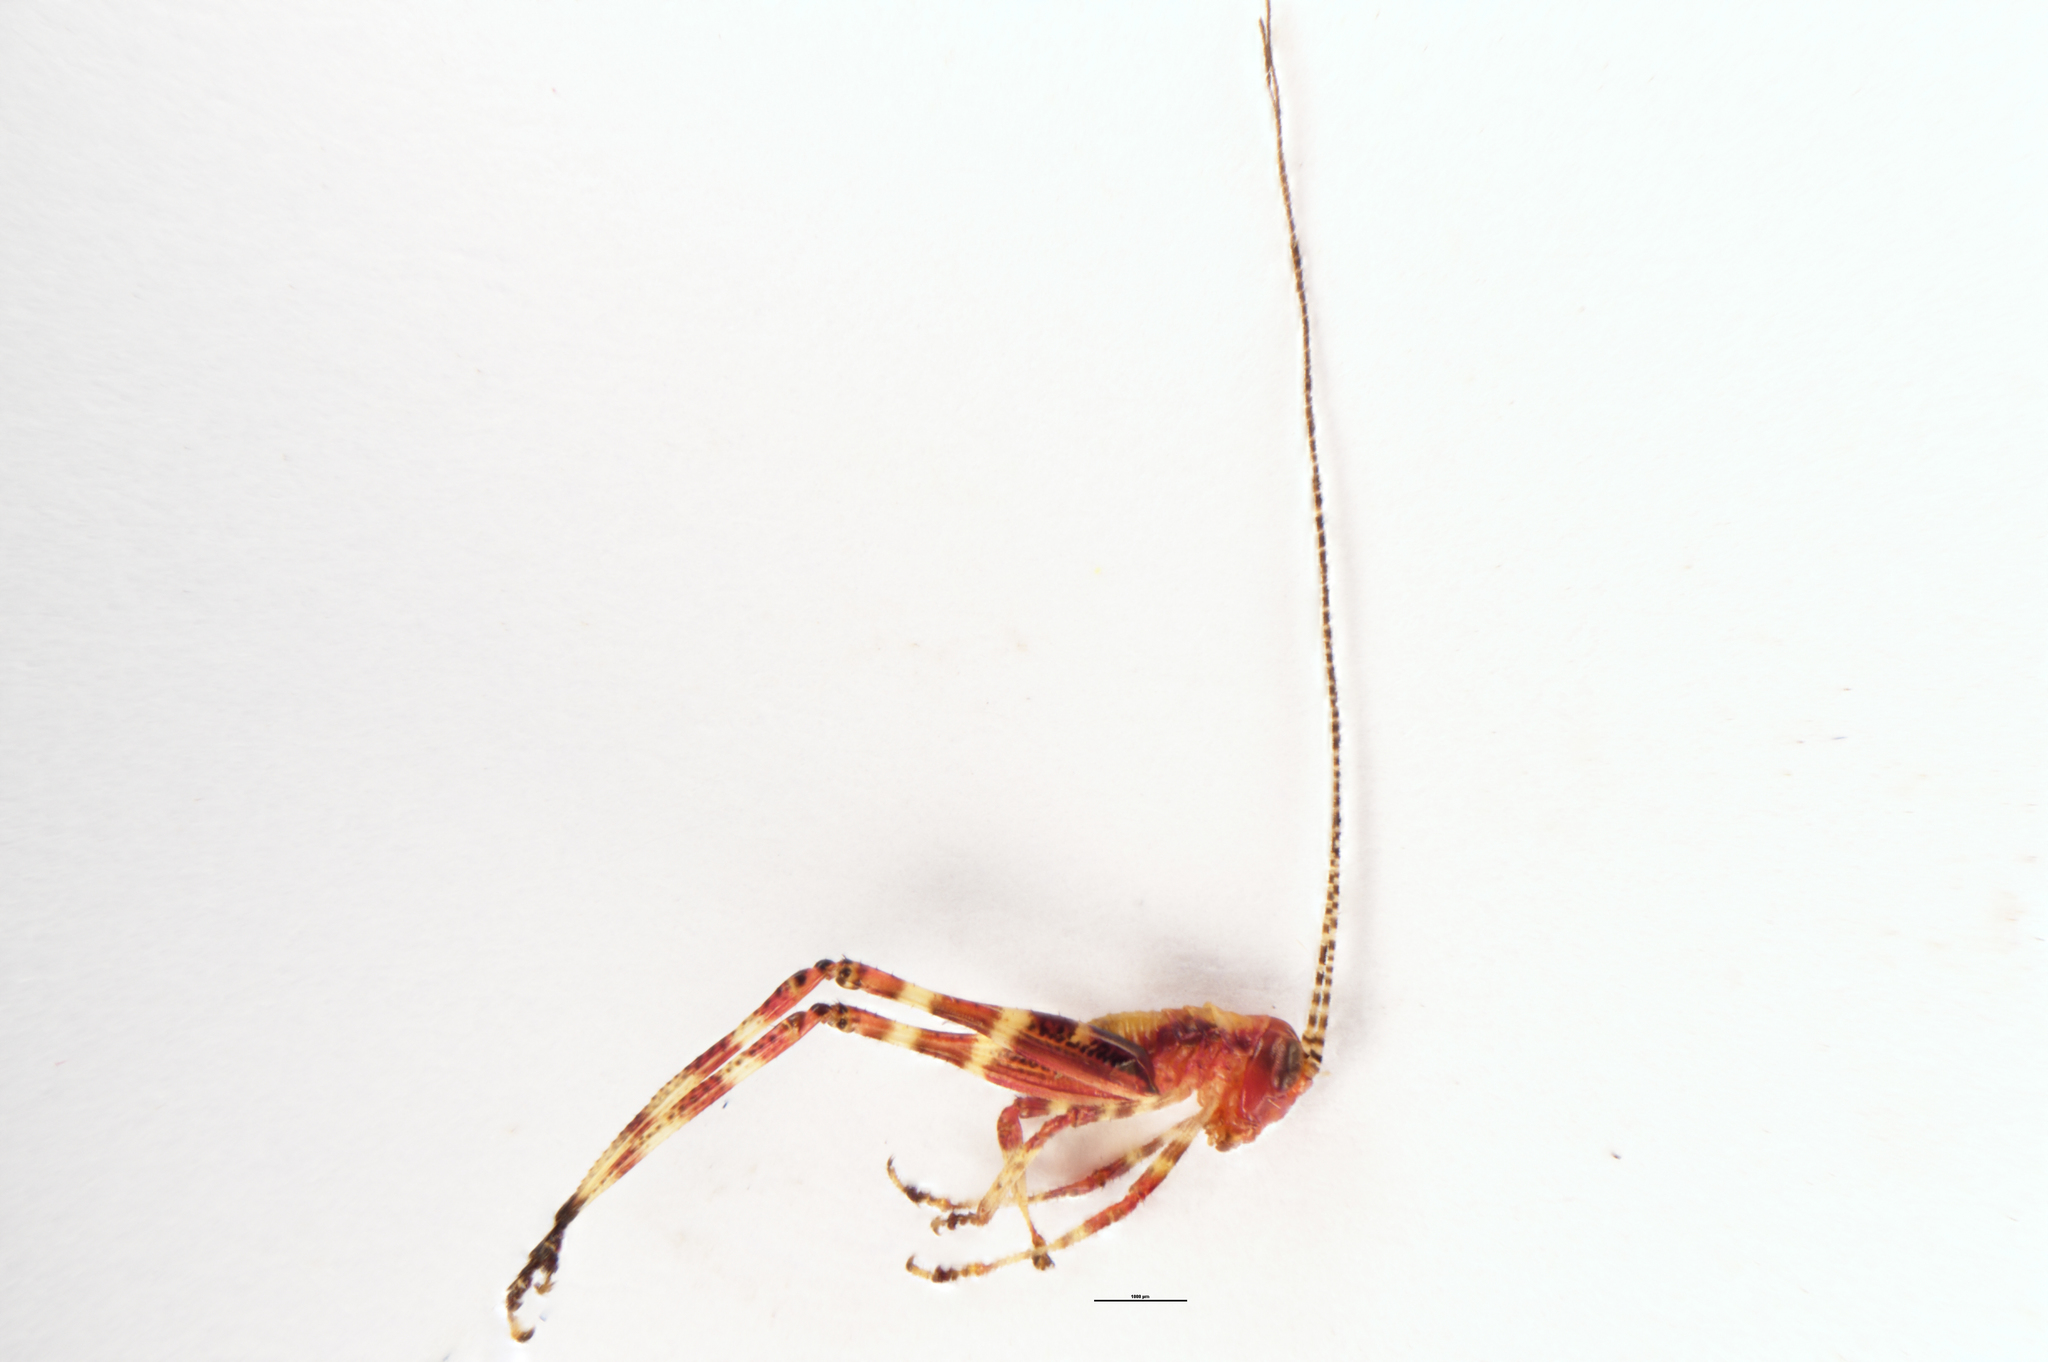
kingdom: Animalia
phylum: Arthropoda
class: Insecta
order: Orthoptera
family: Tettigoniidae
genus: Caedicia
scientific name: Caedicia simplex
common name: Common garden katydid
